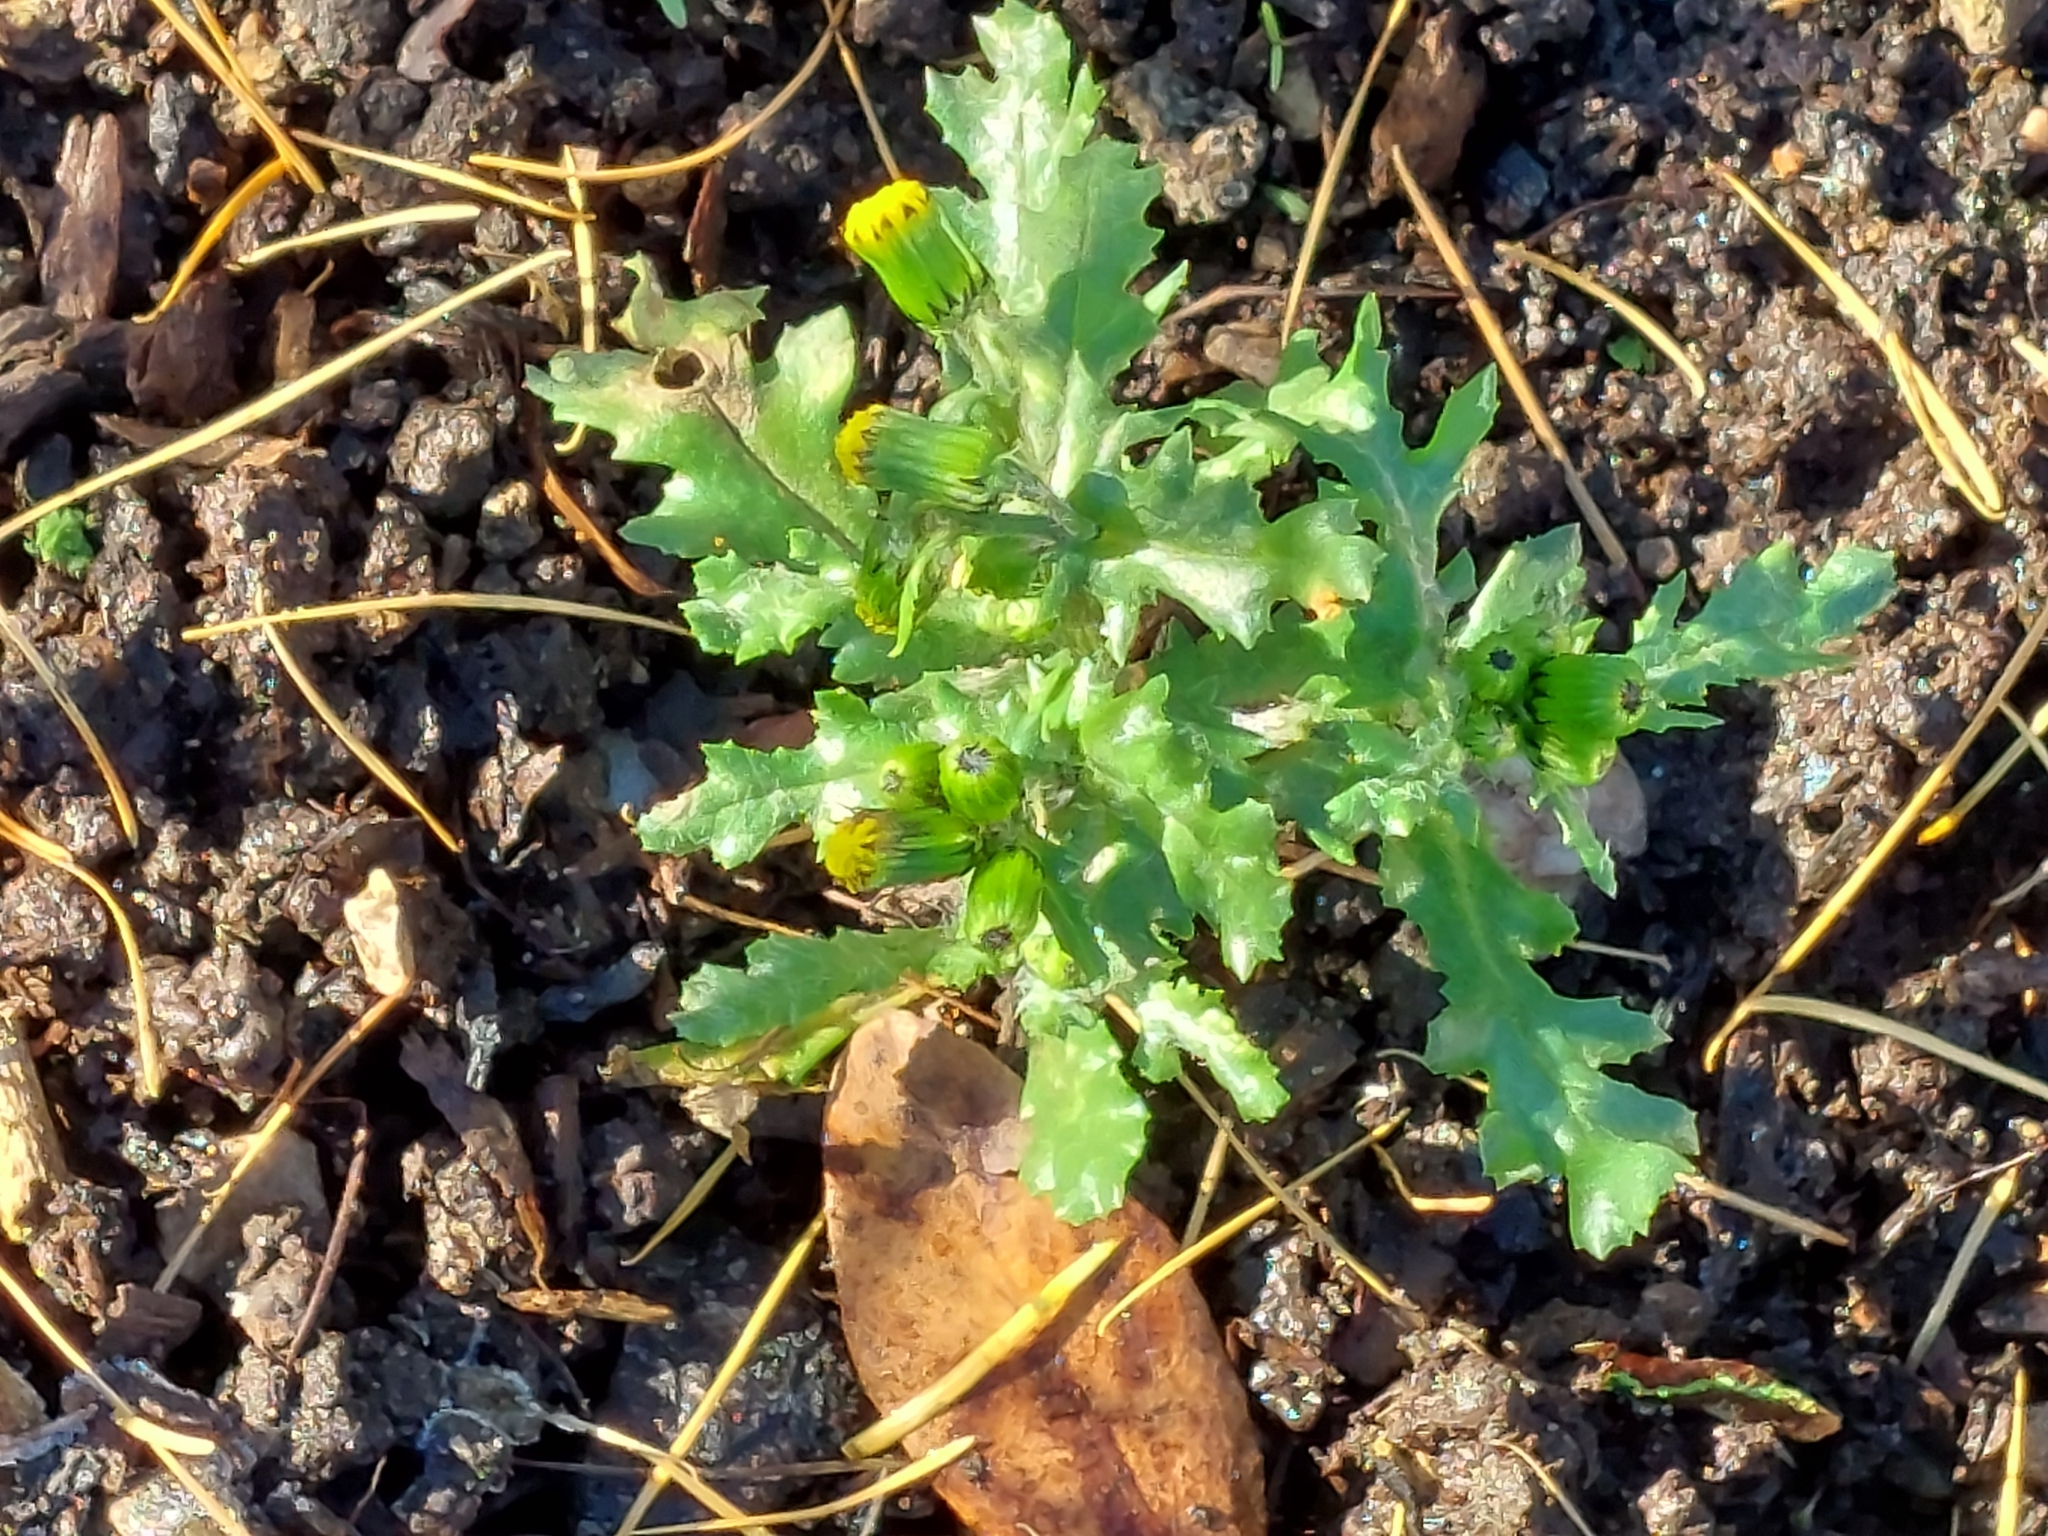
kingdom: Plantae
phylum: Tracheophyta
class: Magnoliopsida
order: Asterales
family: Asteraceae
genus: Senecio
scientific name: Senecio vulgaris
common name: Old-man-in-the-spring
